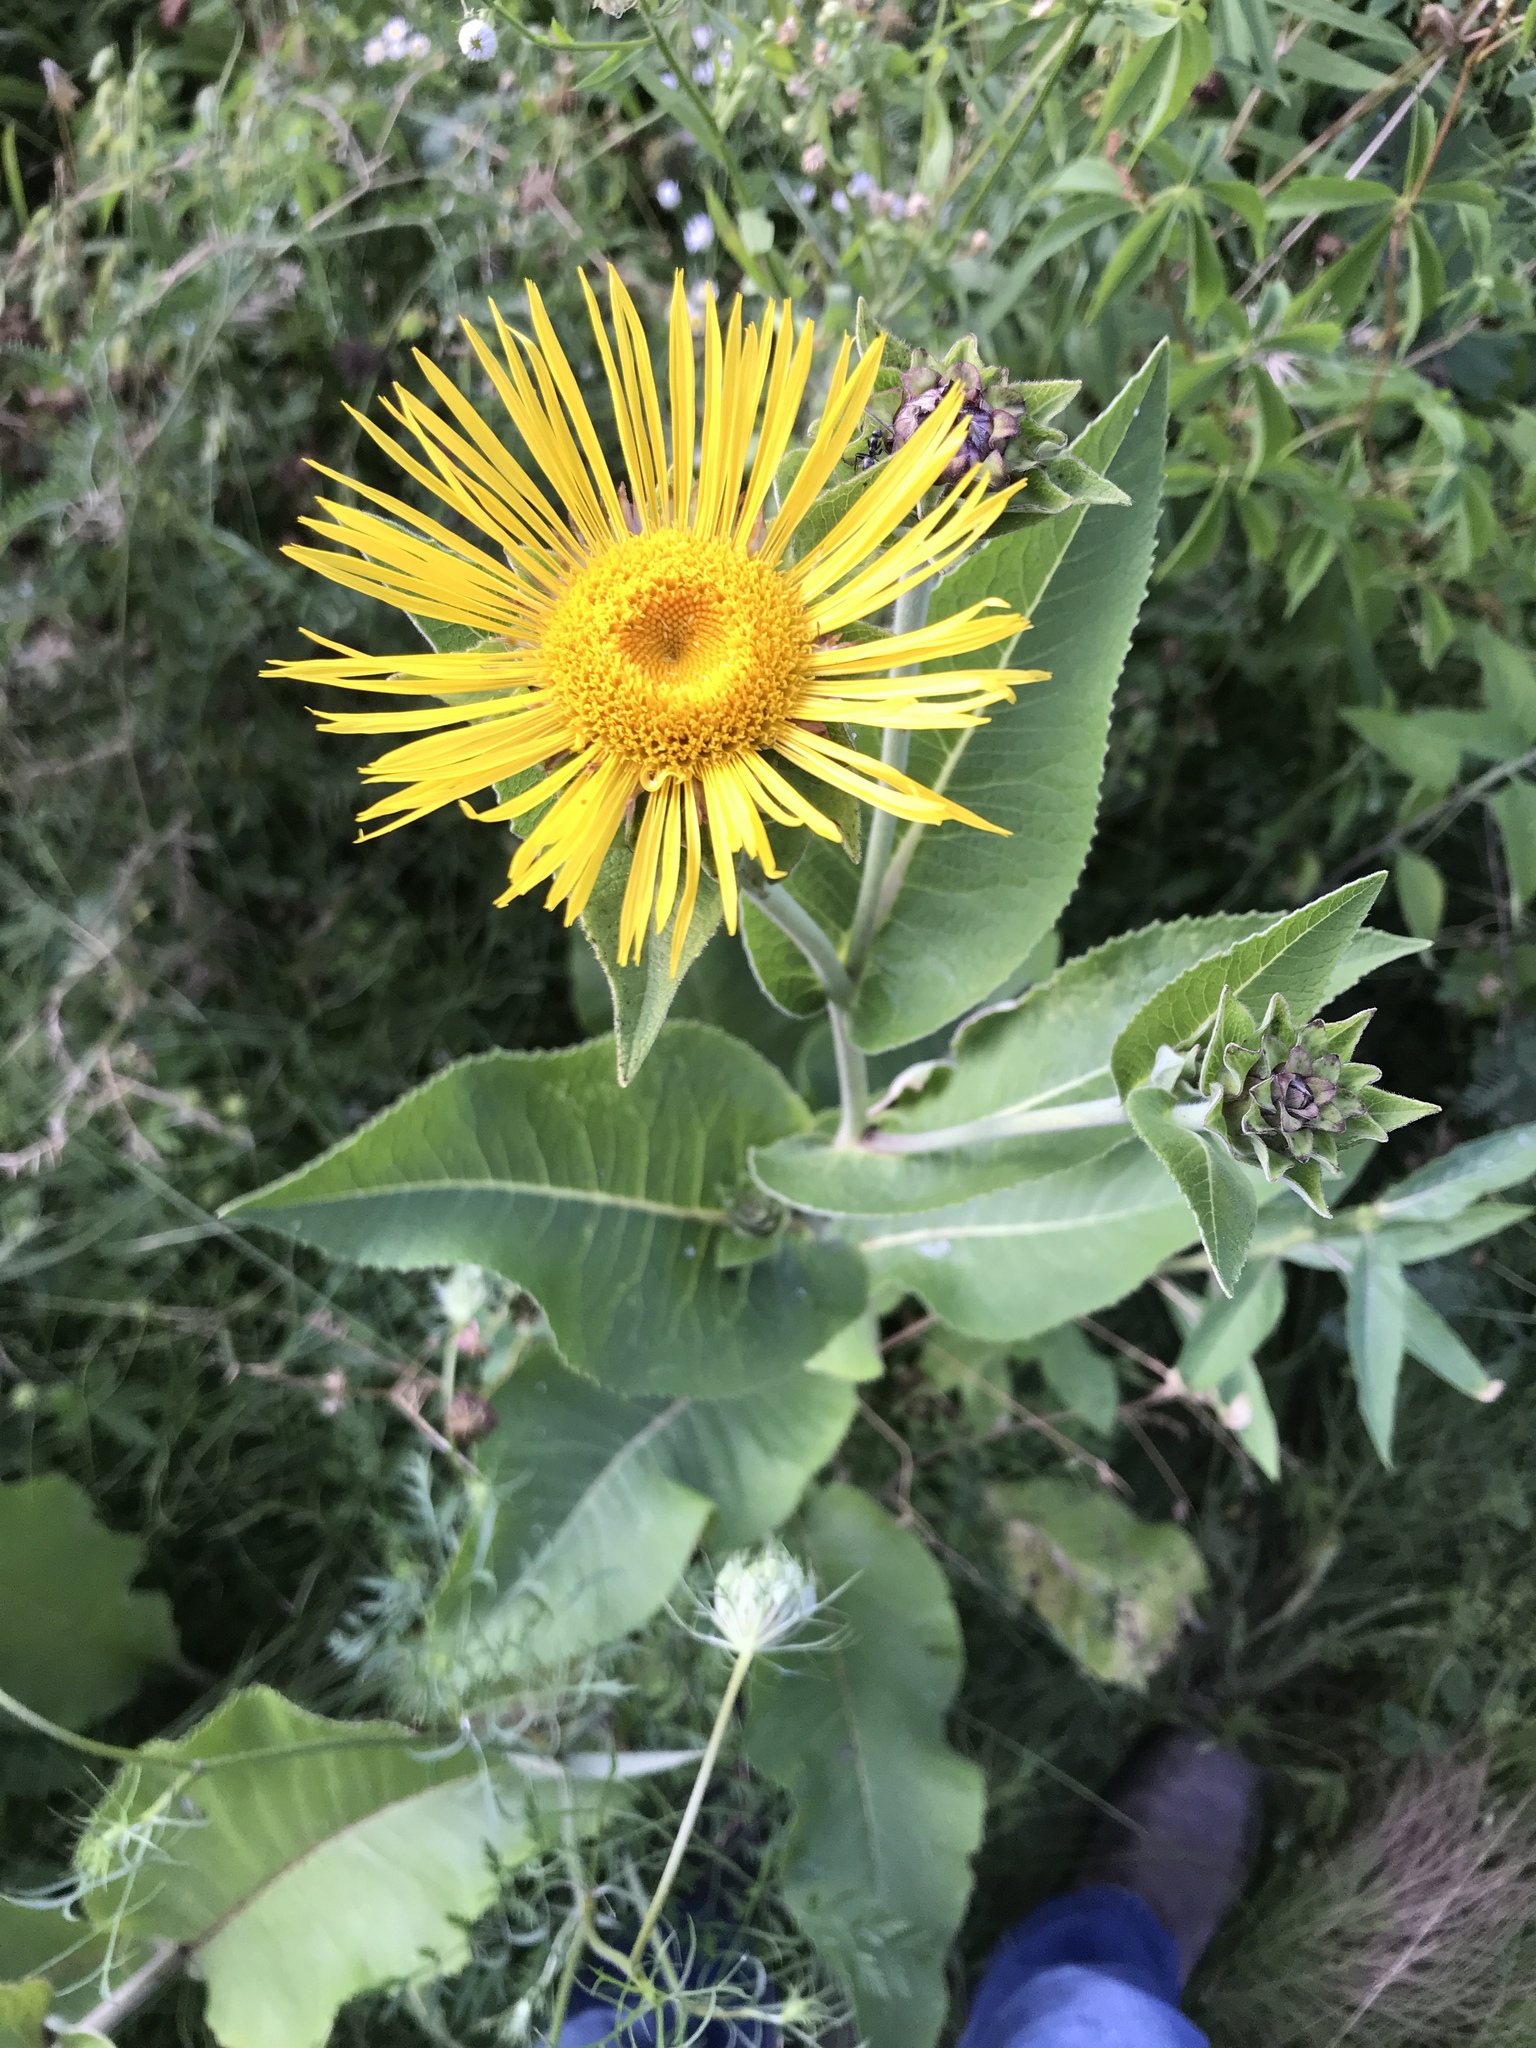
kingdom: Plantae
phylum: Tracheophyta
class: Magnoliopsida
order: Asterales
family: Asteraceae
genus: Inula
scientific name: Inula helenium
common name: Elecampane
